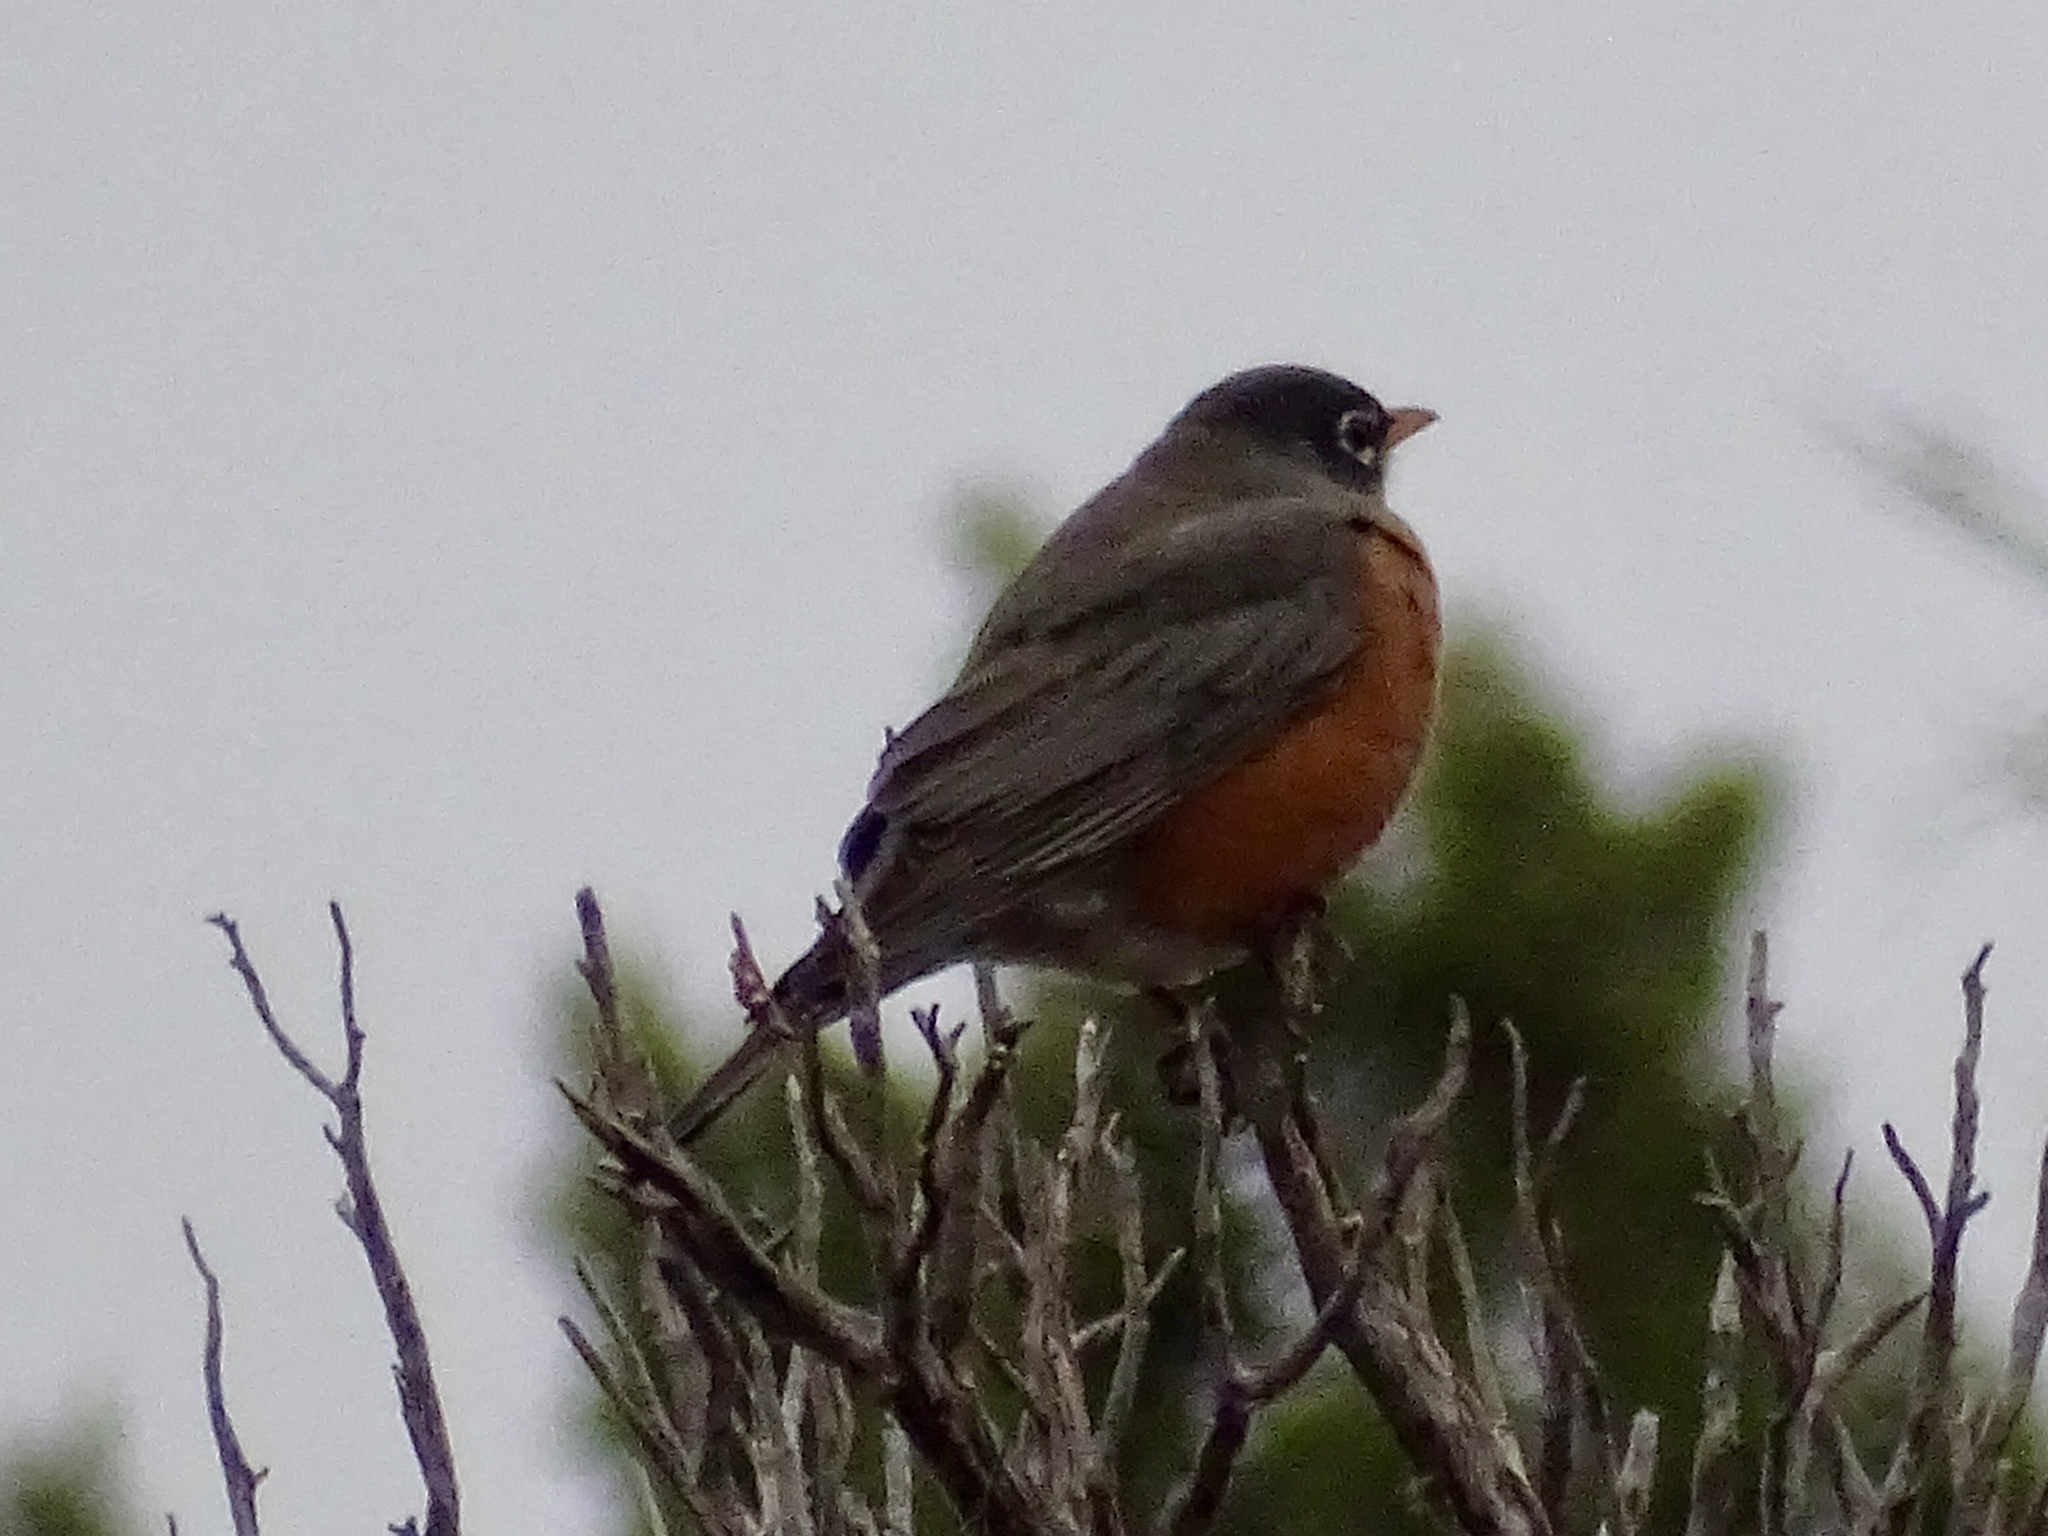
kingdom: Animalia
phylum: Chordata
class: Aves
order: Passeriformes
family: Turdidae
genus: Turdus
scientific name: Turdus migratorius
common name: American robin
